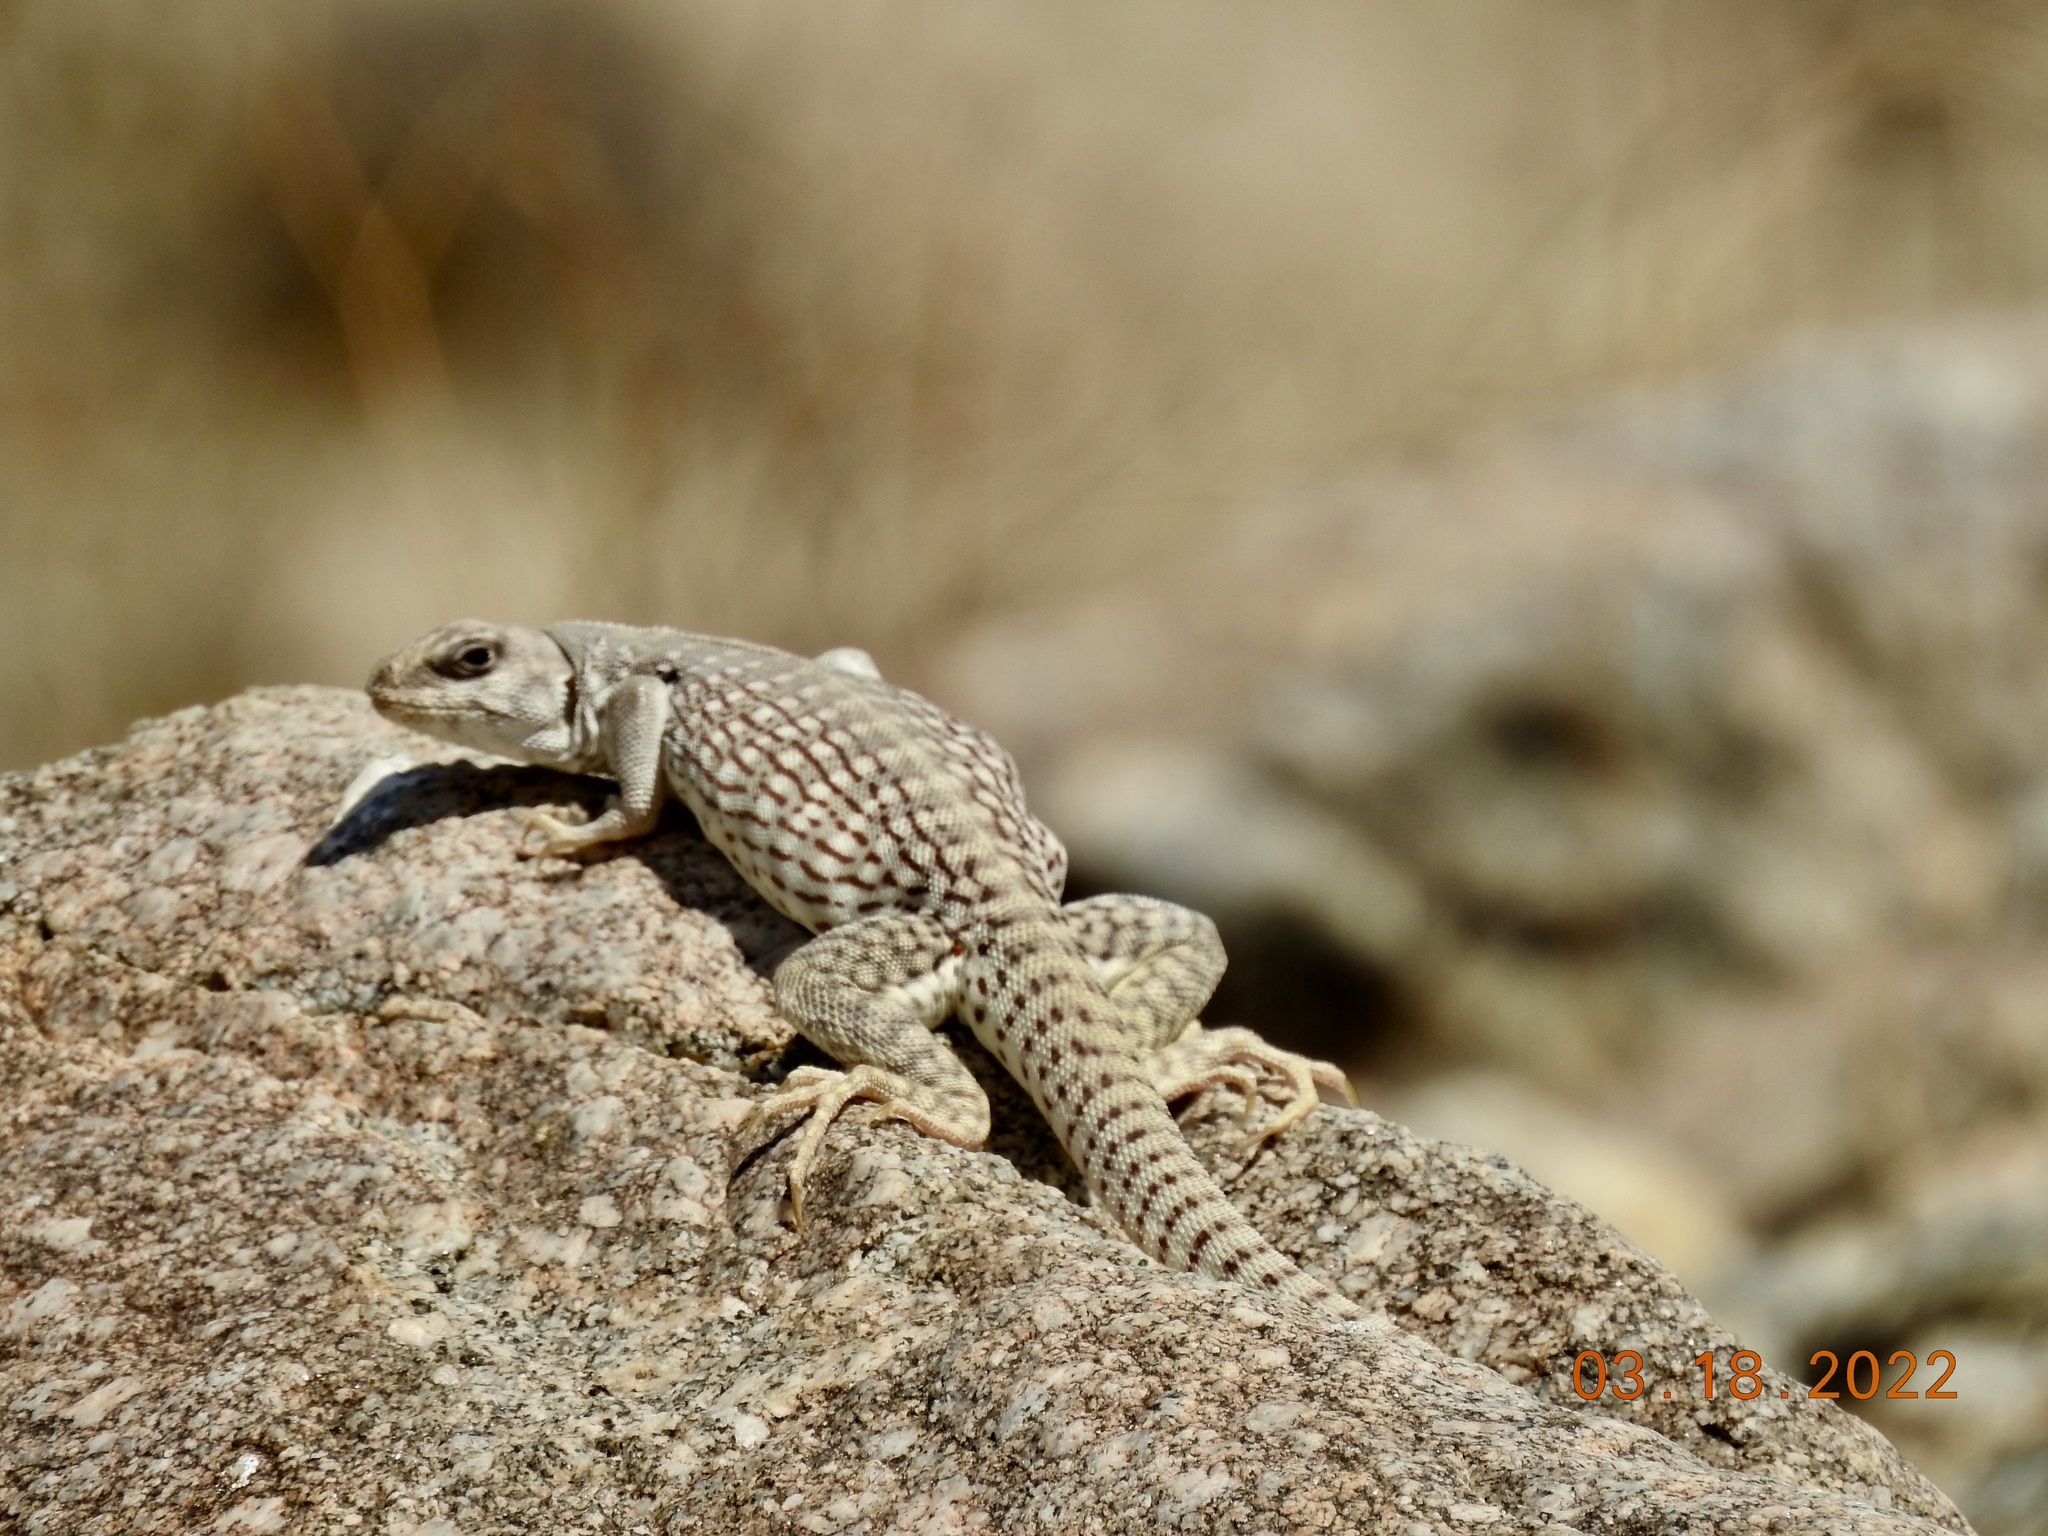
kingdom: Animalia
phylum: Chordata
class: Squamata
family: Iguanidae
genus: Dipsosaurus
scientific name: Dipsosaurus dorsalis
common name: Desert iguana
